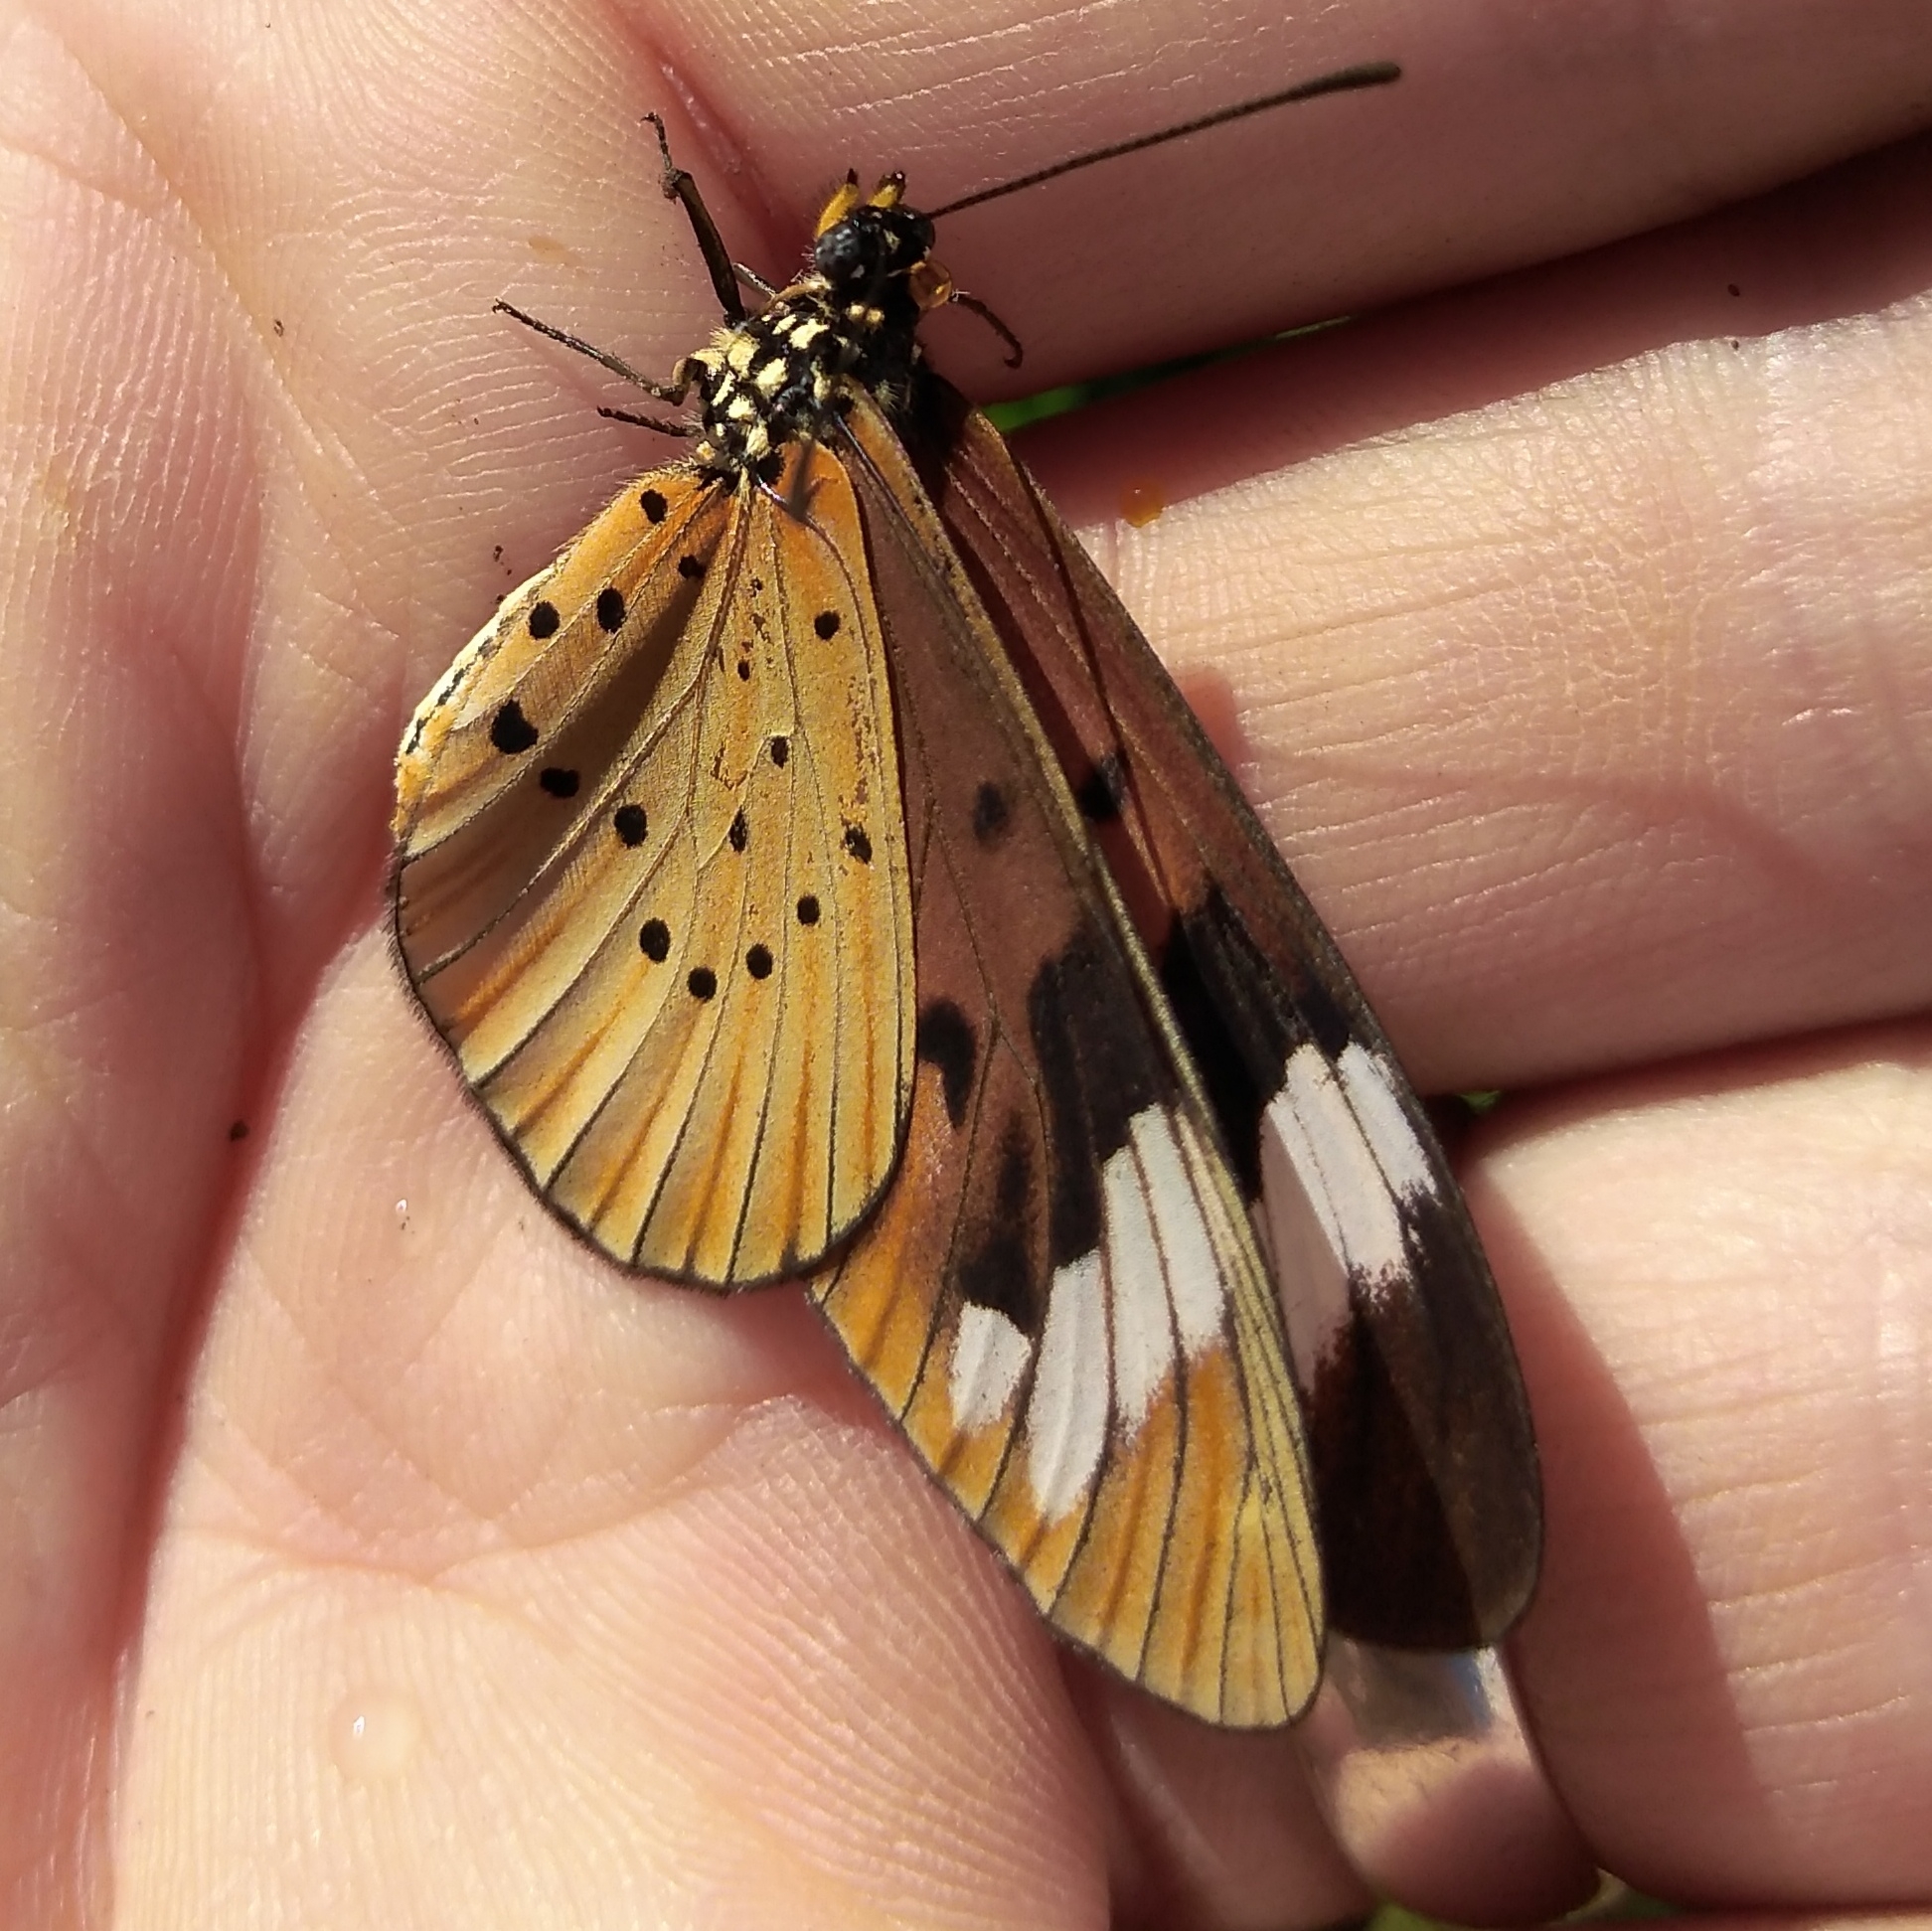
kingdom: Animalia
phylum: Arthropoda
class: Insecta
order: Lepidoptera
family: Nymphalidae
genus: Acraea
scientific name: Acraea Telchinia encedon
